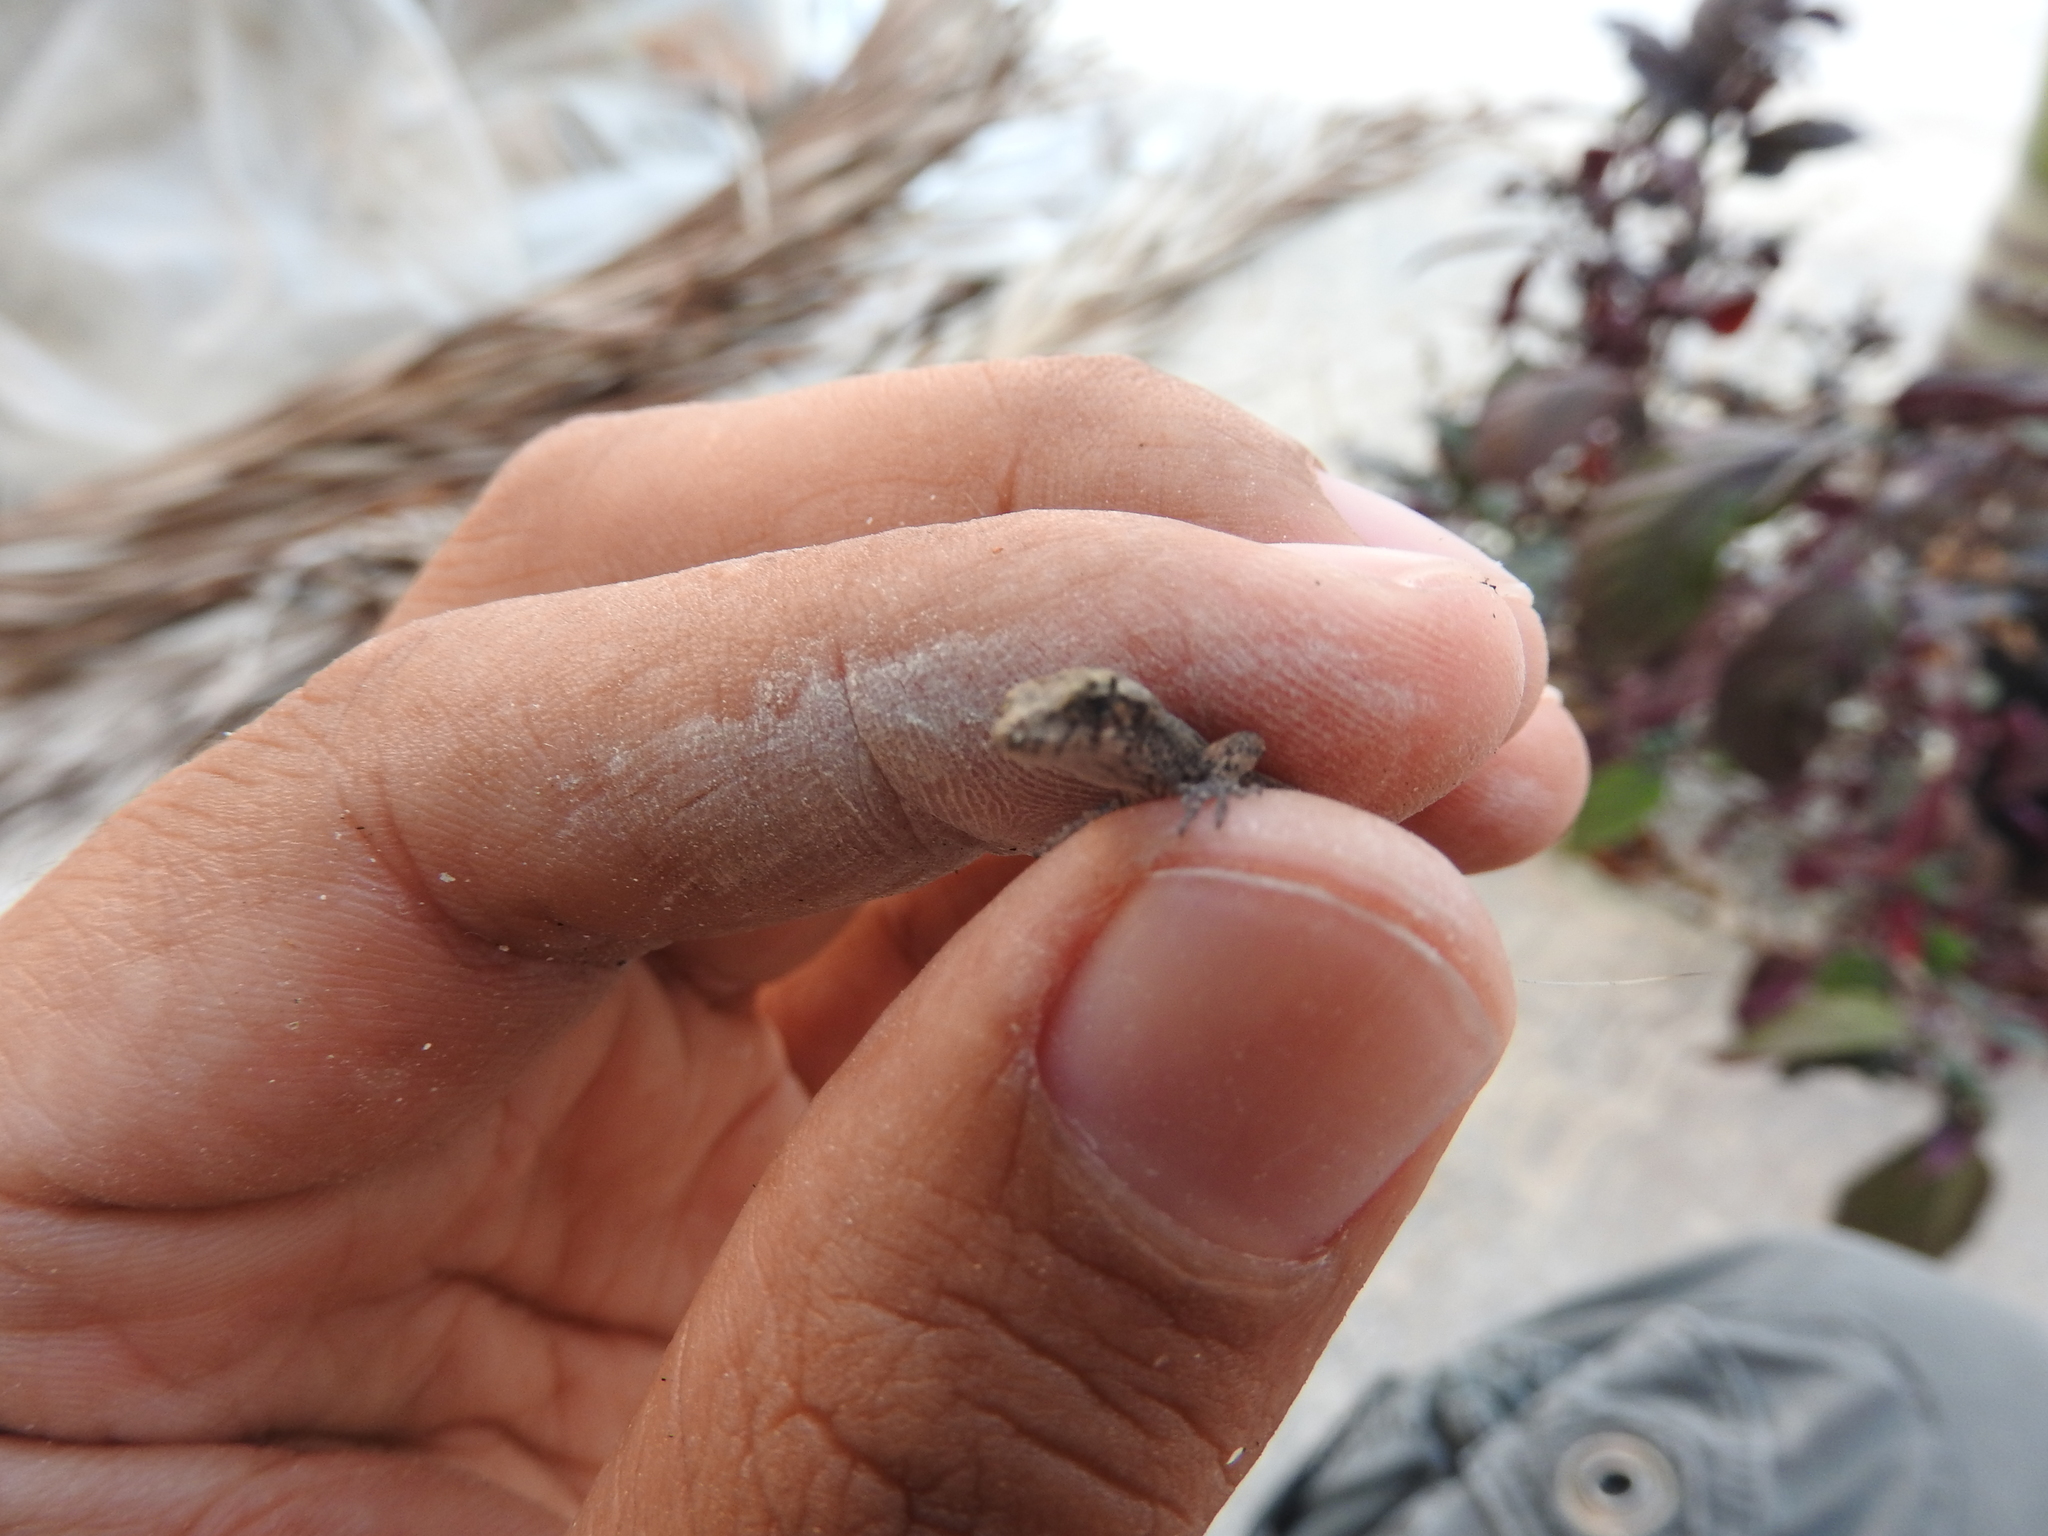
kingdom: Animalia
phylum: Chordata
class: Squamata
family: Dactyloidae
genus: Anolis
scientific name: Anolis sagrei
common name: Brown anole
